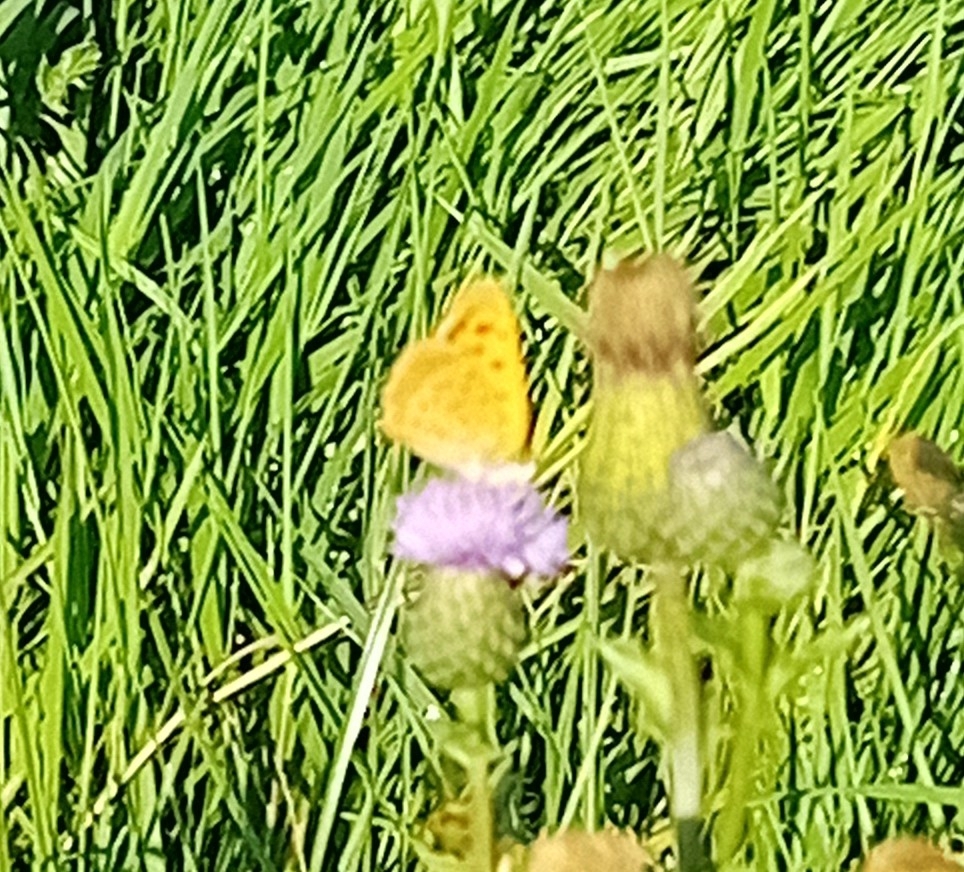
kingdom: Animalia
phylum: Arthropoda
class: Insecta
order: Lepidoptera
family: Lycaenidae
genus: Lycaena
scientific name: Lycaena phlaeas
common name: Small copper
